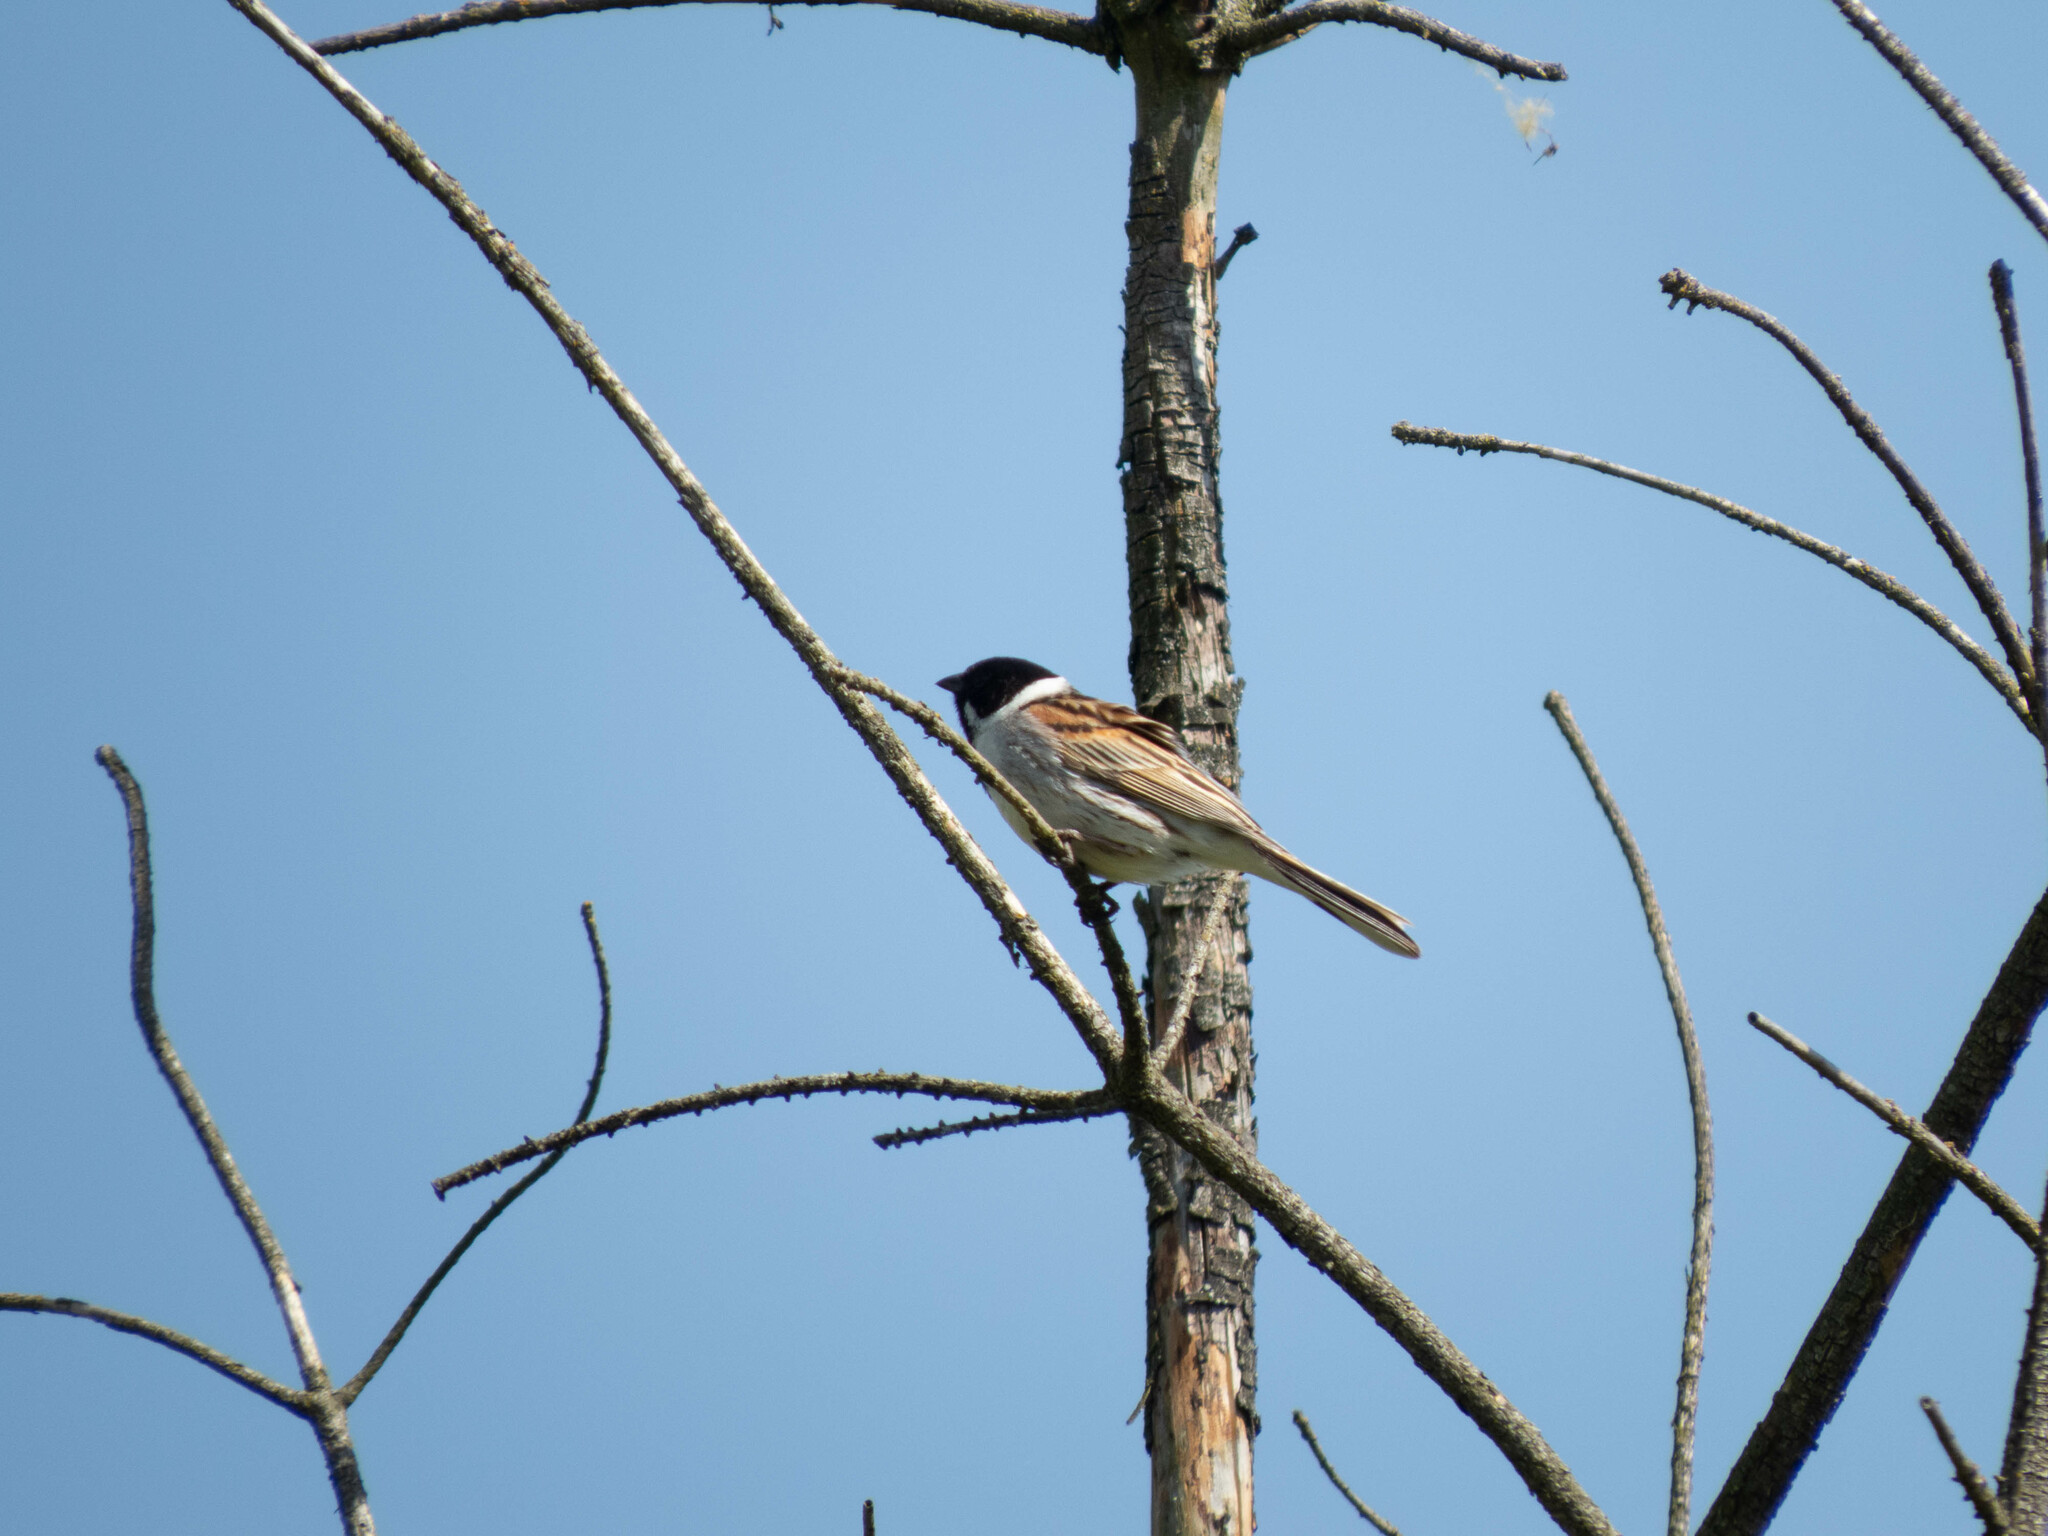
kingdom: Animalia
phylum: Chordata
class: Aves
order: Passeriformes
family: Emberizidae
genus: Emberiza
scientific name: Emberiza schoeniclus
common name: Reed bunting
